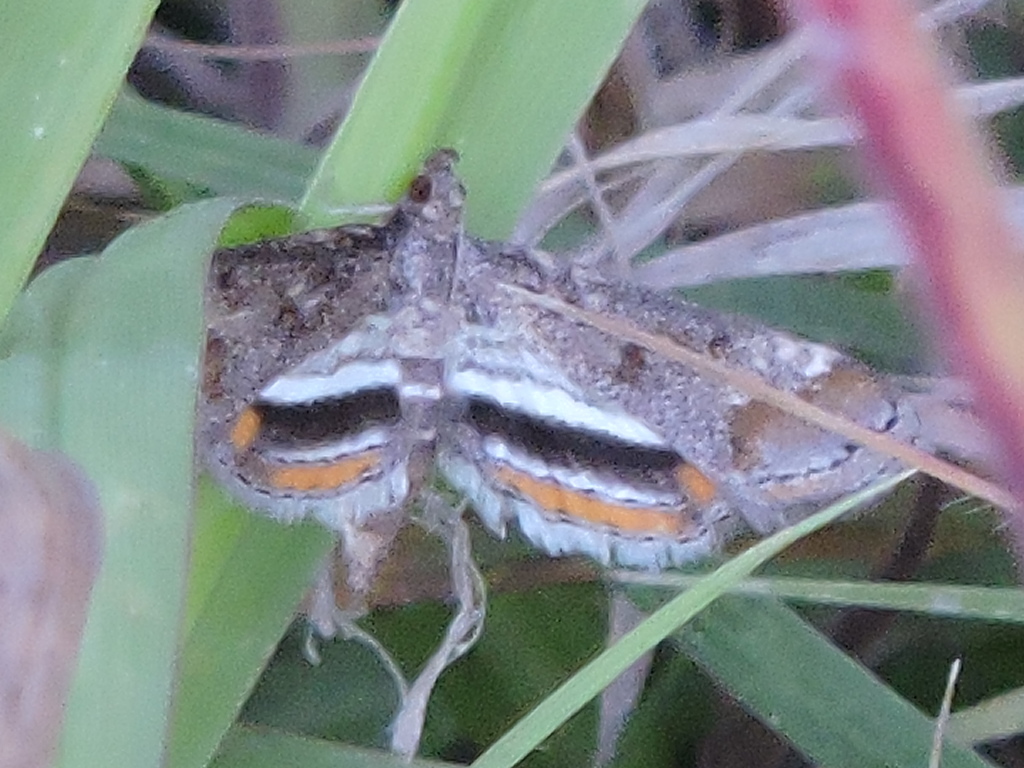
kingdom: Animalia
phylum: Arthropoda
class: Insecta
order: Lepidoptera
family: Crambidae
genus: Parapoynx
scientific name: Parapoynx obscuralis
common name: American china-mark
